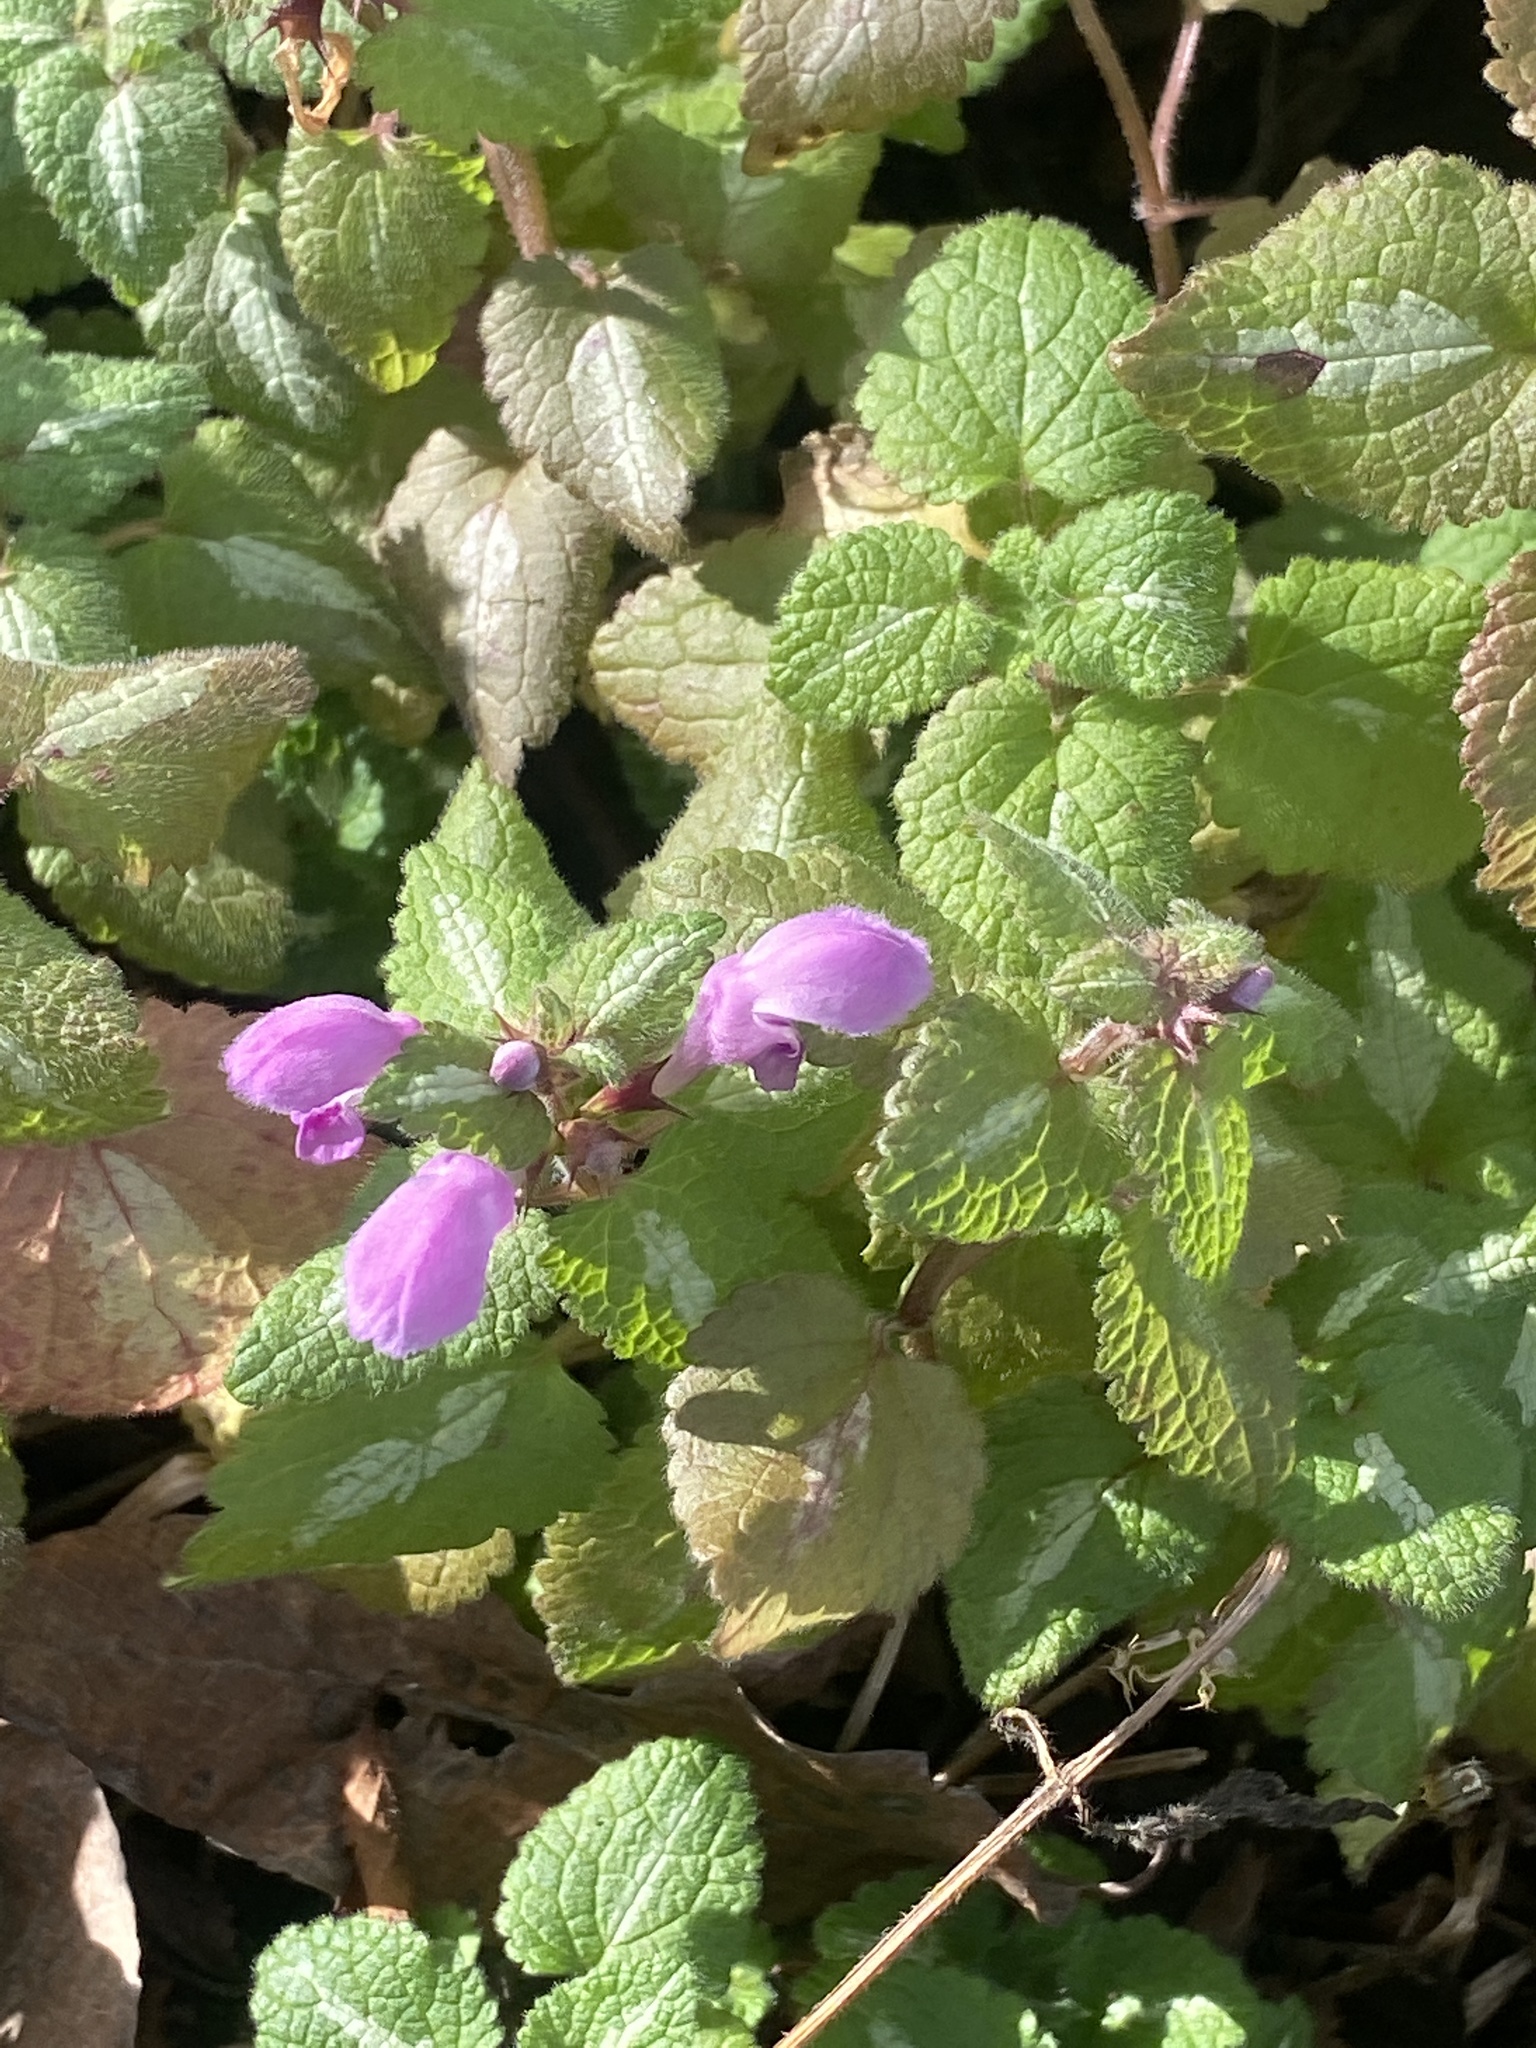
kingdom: Plantae
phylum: Tracheophyta
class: Magnoliopsida
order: Lamiales
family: Lamiaceae
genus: Lamium
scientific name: Lamium maculatum
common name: Spotted dead-nettle
